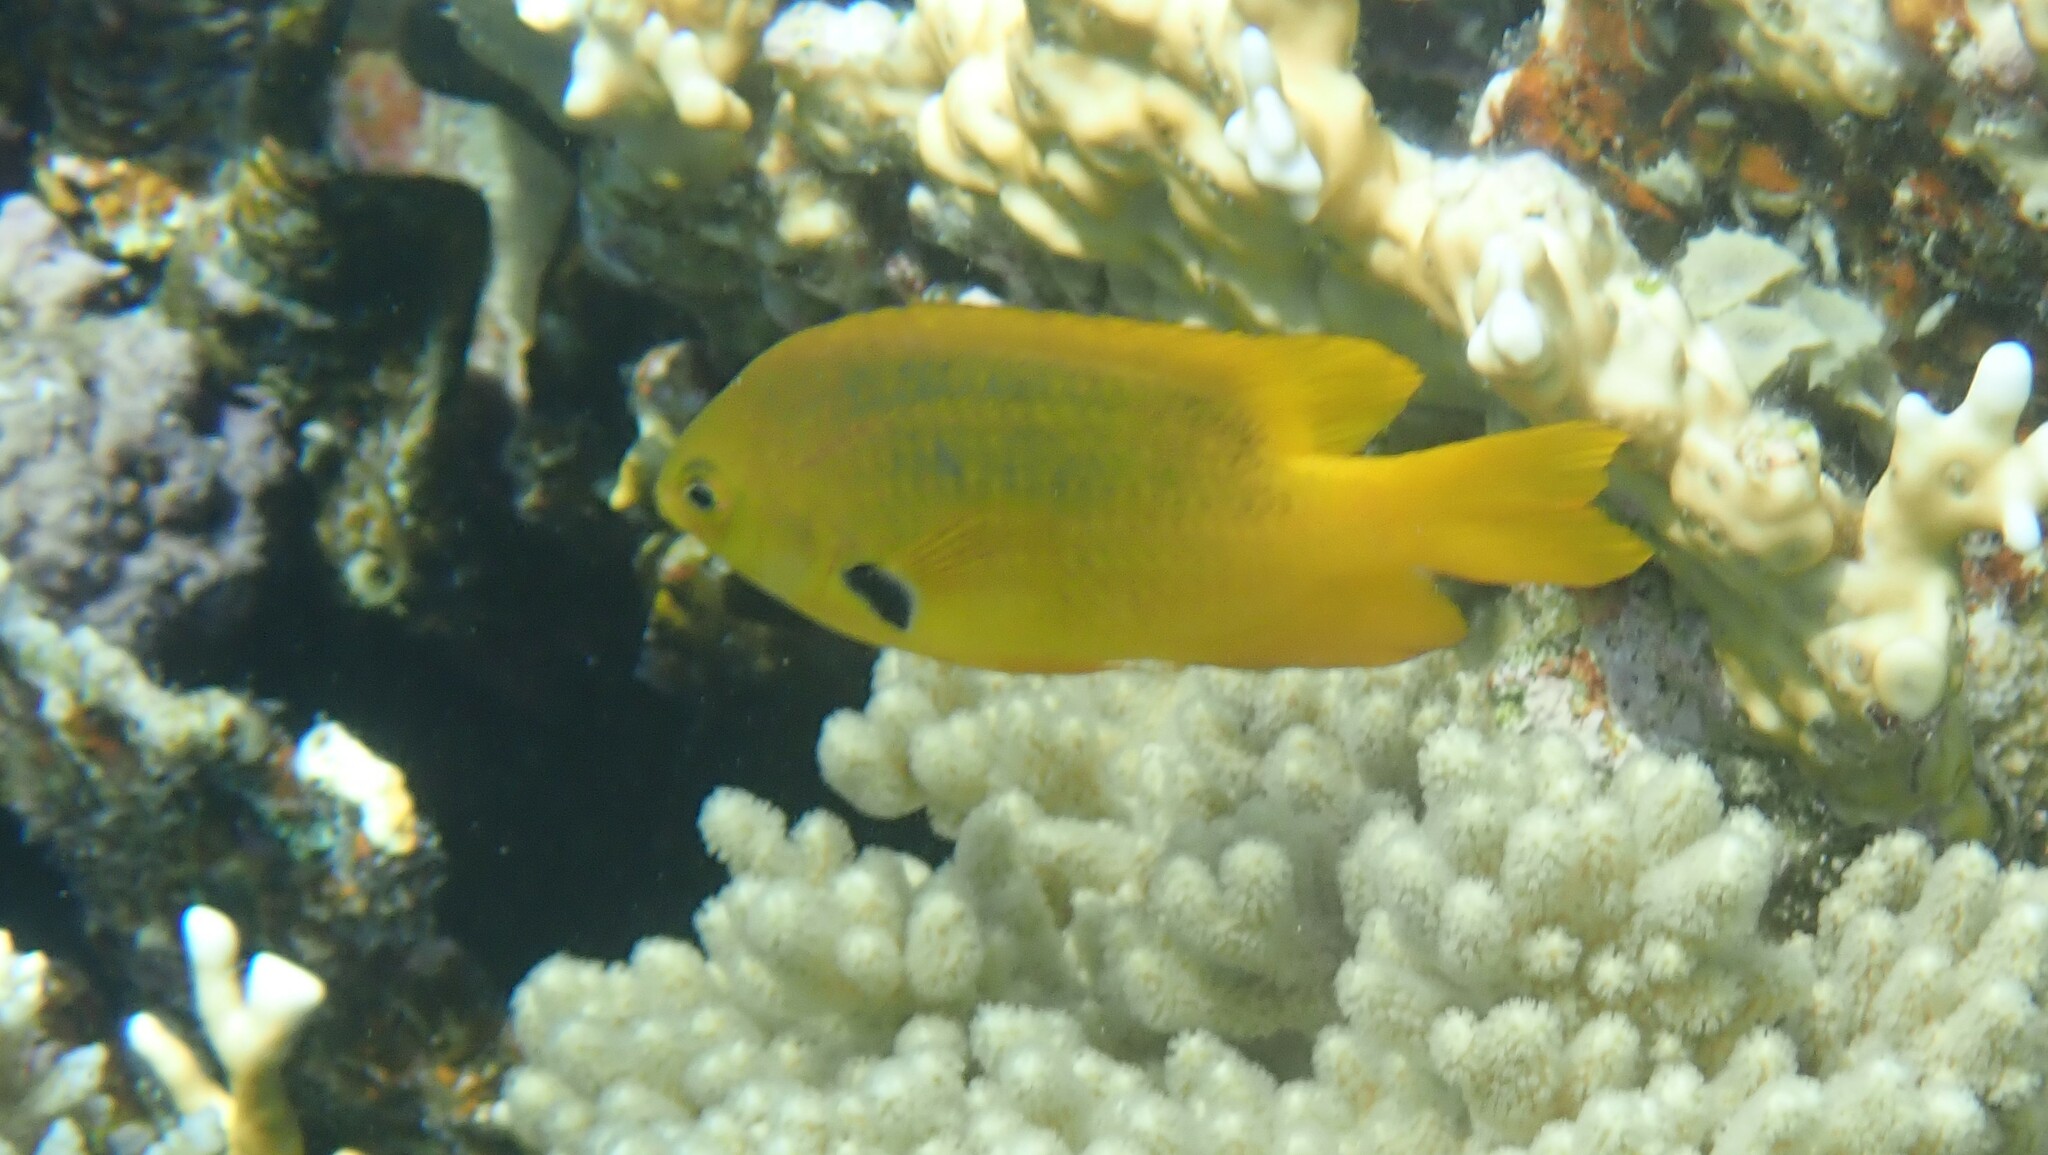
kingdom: Animalia
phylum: Chordata
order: Perciformes
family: Pomacentridae
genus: Pomacentrus
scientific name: Pomacentrus sulfureus
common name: Sulfur damsel
